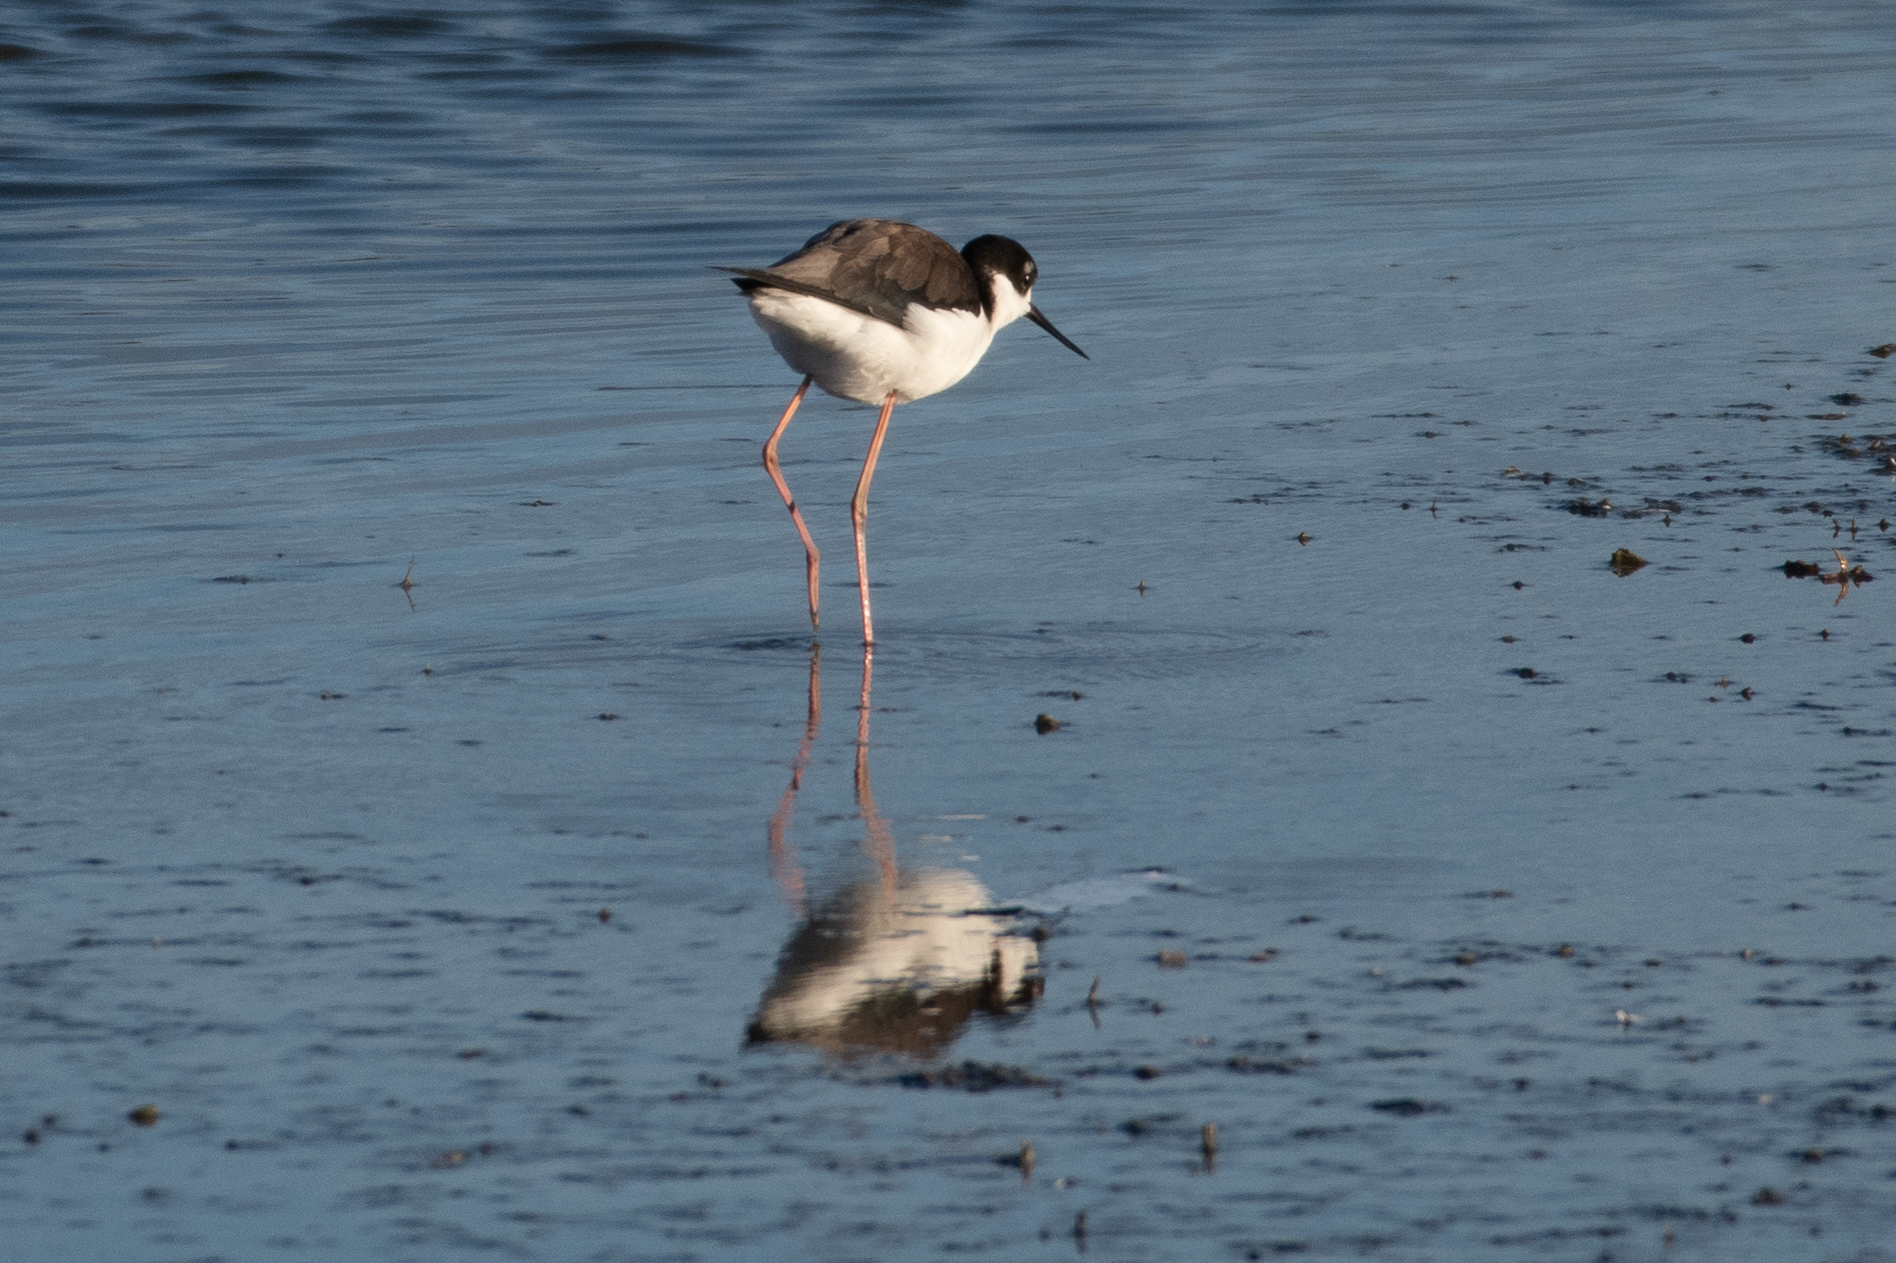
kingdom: Animalia
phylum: Chordata
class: Aves
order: Charadriiformes
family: Recurvirostridae
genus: Himantopus
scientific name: Himantopus mexicanus
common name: Black-necked stilt
